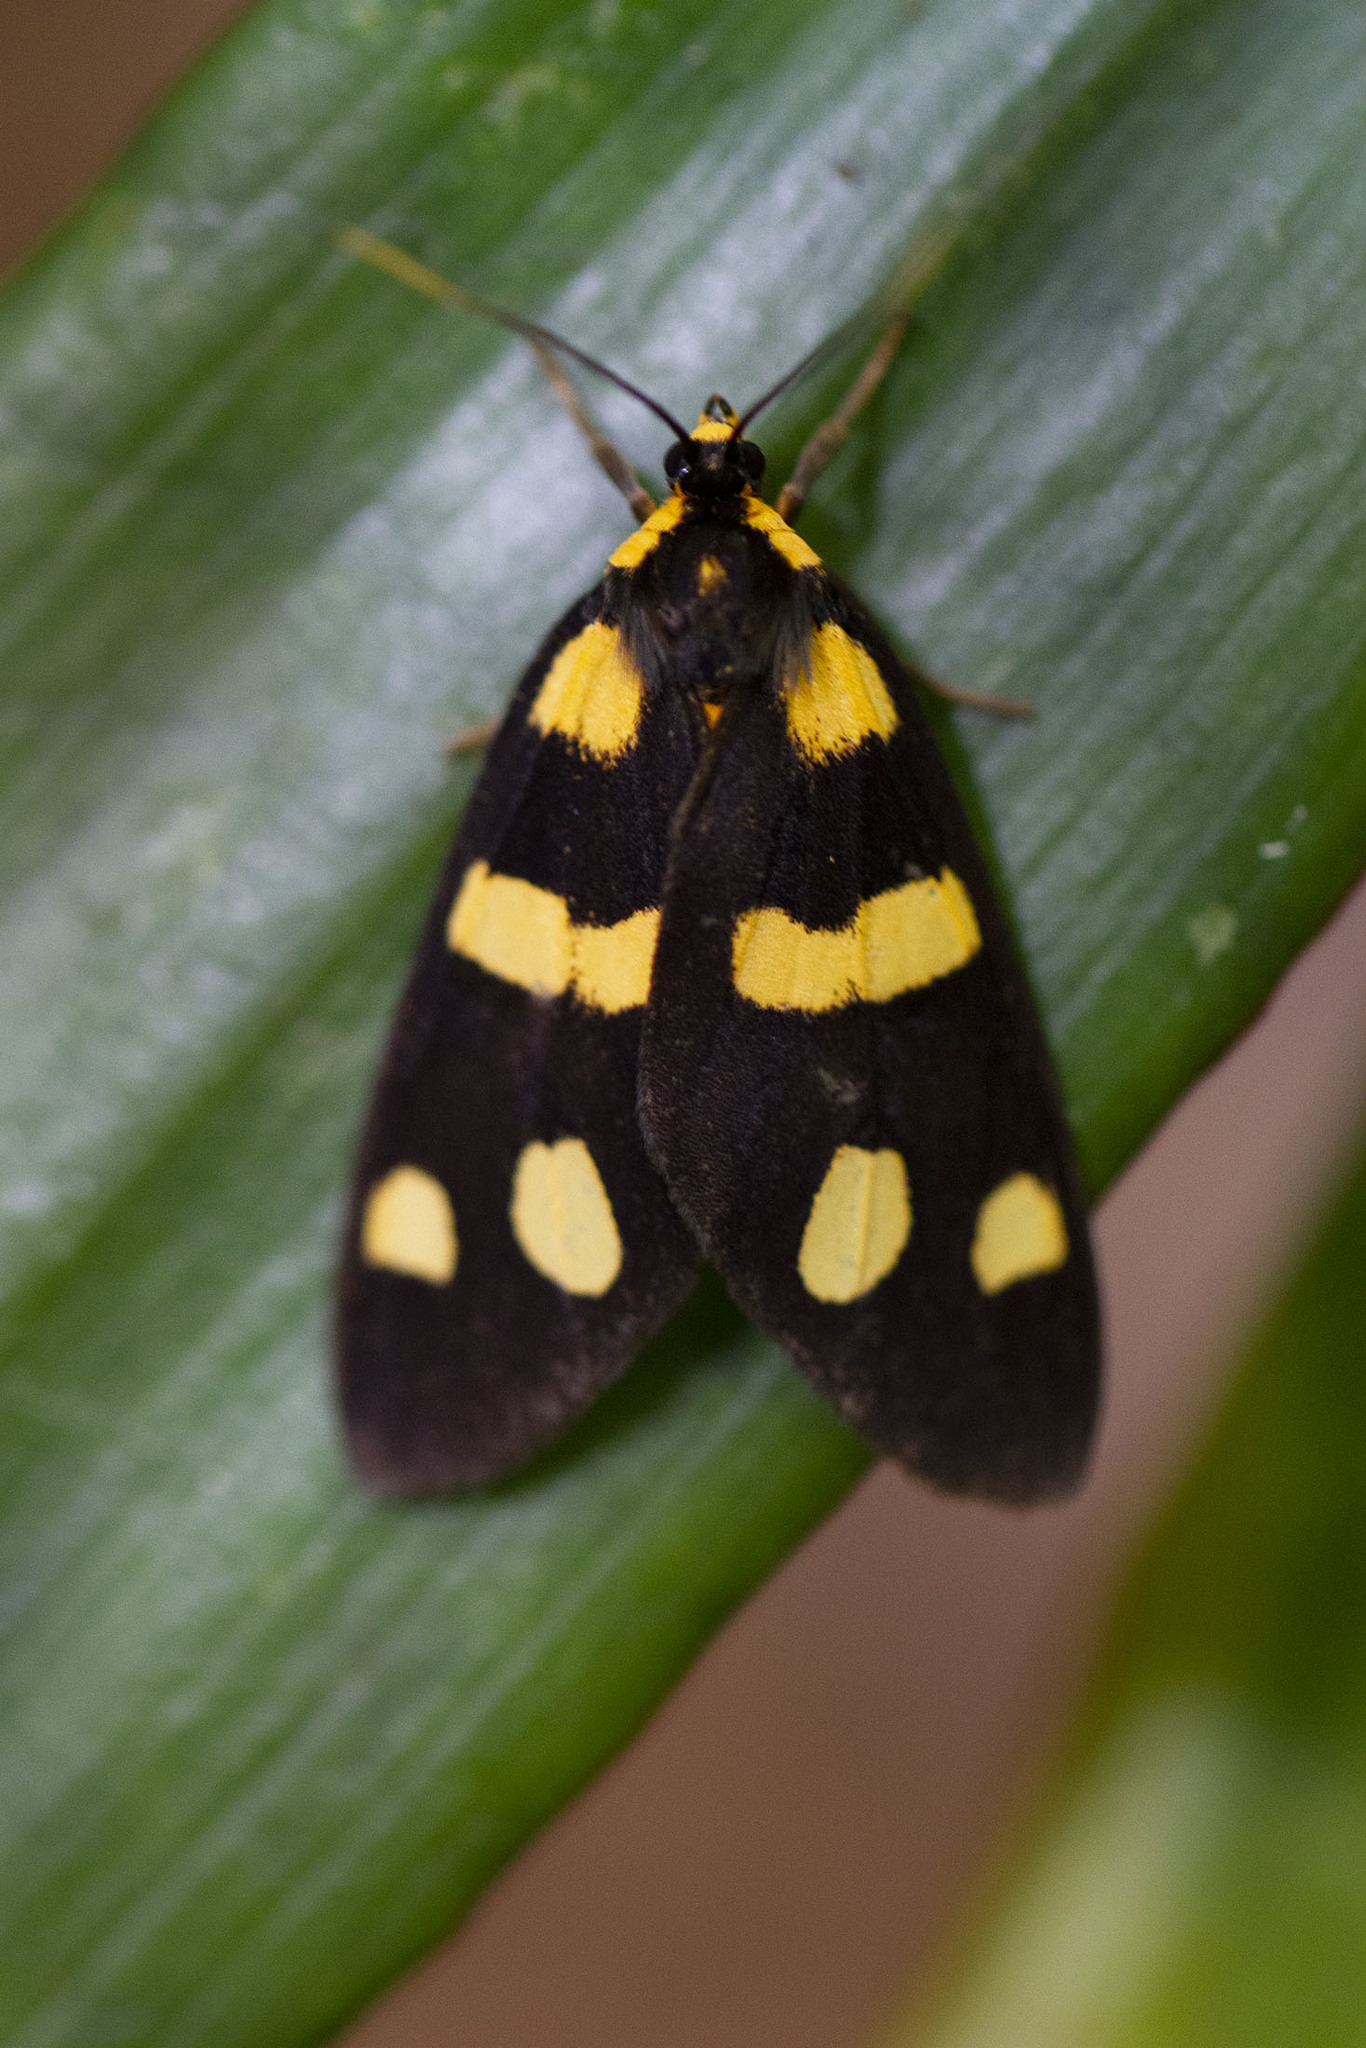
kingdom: Animalia
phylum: Arthropoda
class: Insecta
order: Lepidoptera
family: Erebidae
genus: Dubianaclia
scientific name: Dubianaclia contigua
